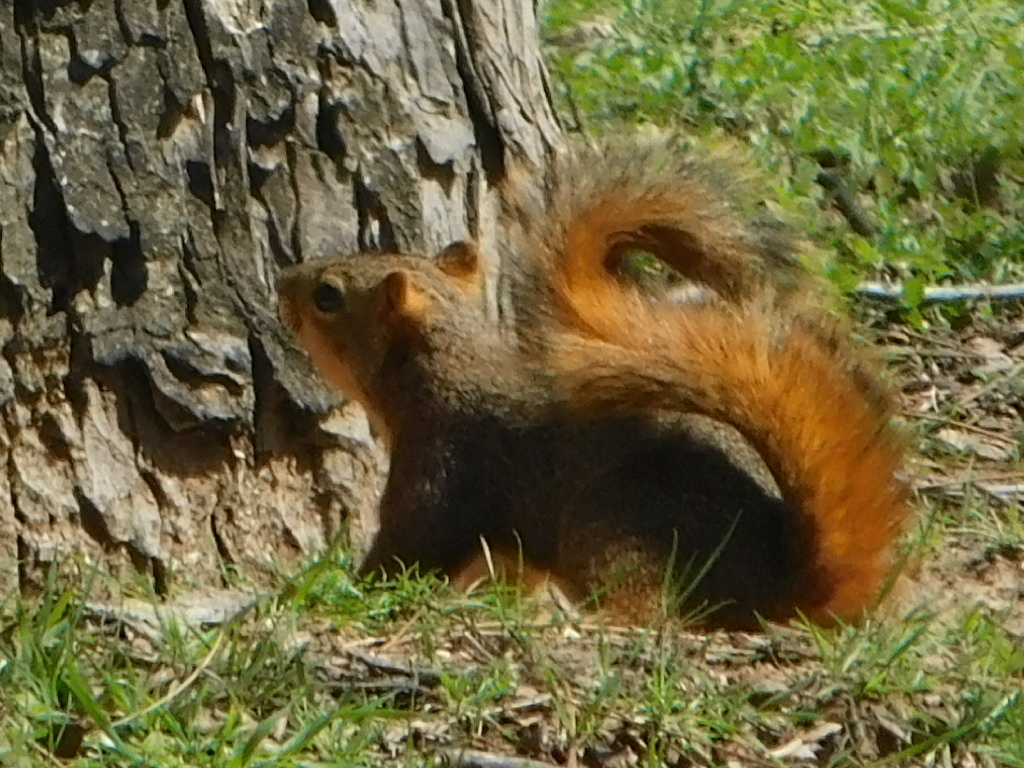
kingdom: Animalia
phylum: Chordata
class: Mammalia
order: Rodentia
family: Sciuridae
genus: Sciurus
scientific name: Sciurus niger
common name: Fox squirrel
